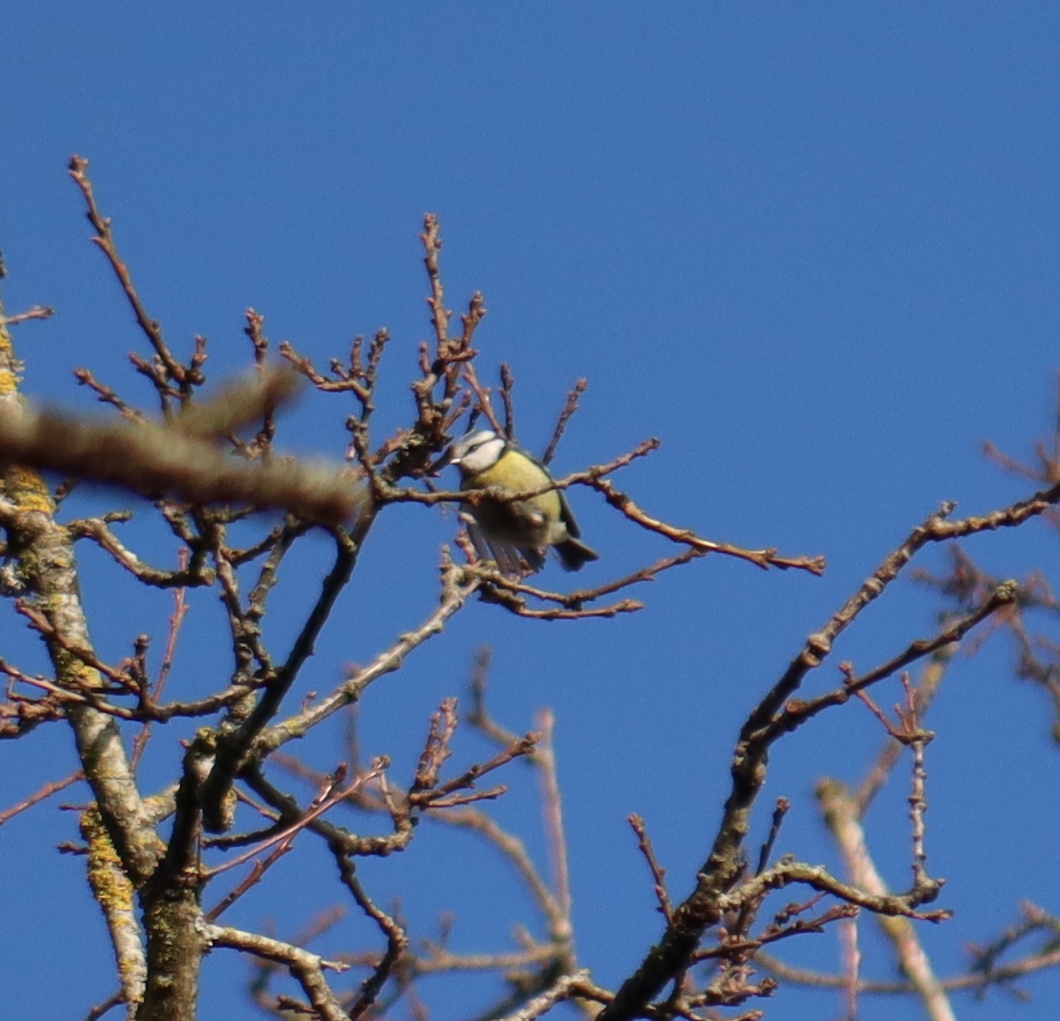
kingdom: Animalia
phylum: Chordata
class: Aves
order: Passeriformes
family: Paridae
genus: Cyanistes
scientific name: Cyanistes caeruleus
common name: Eurasian blue tit
